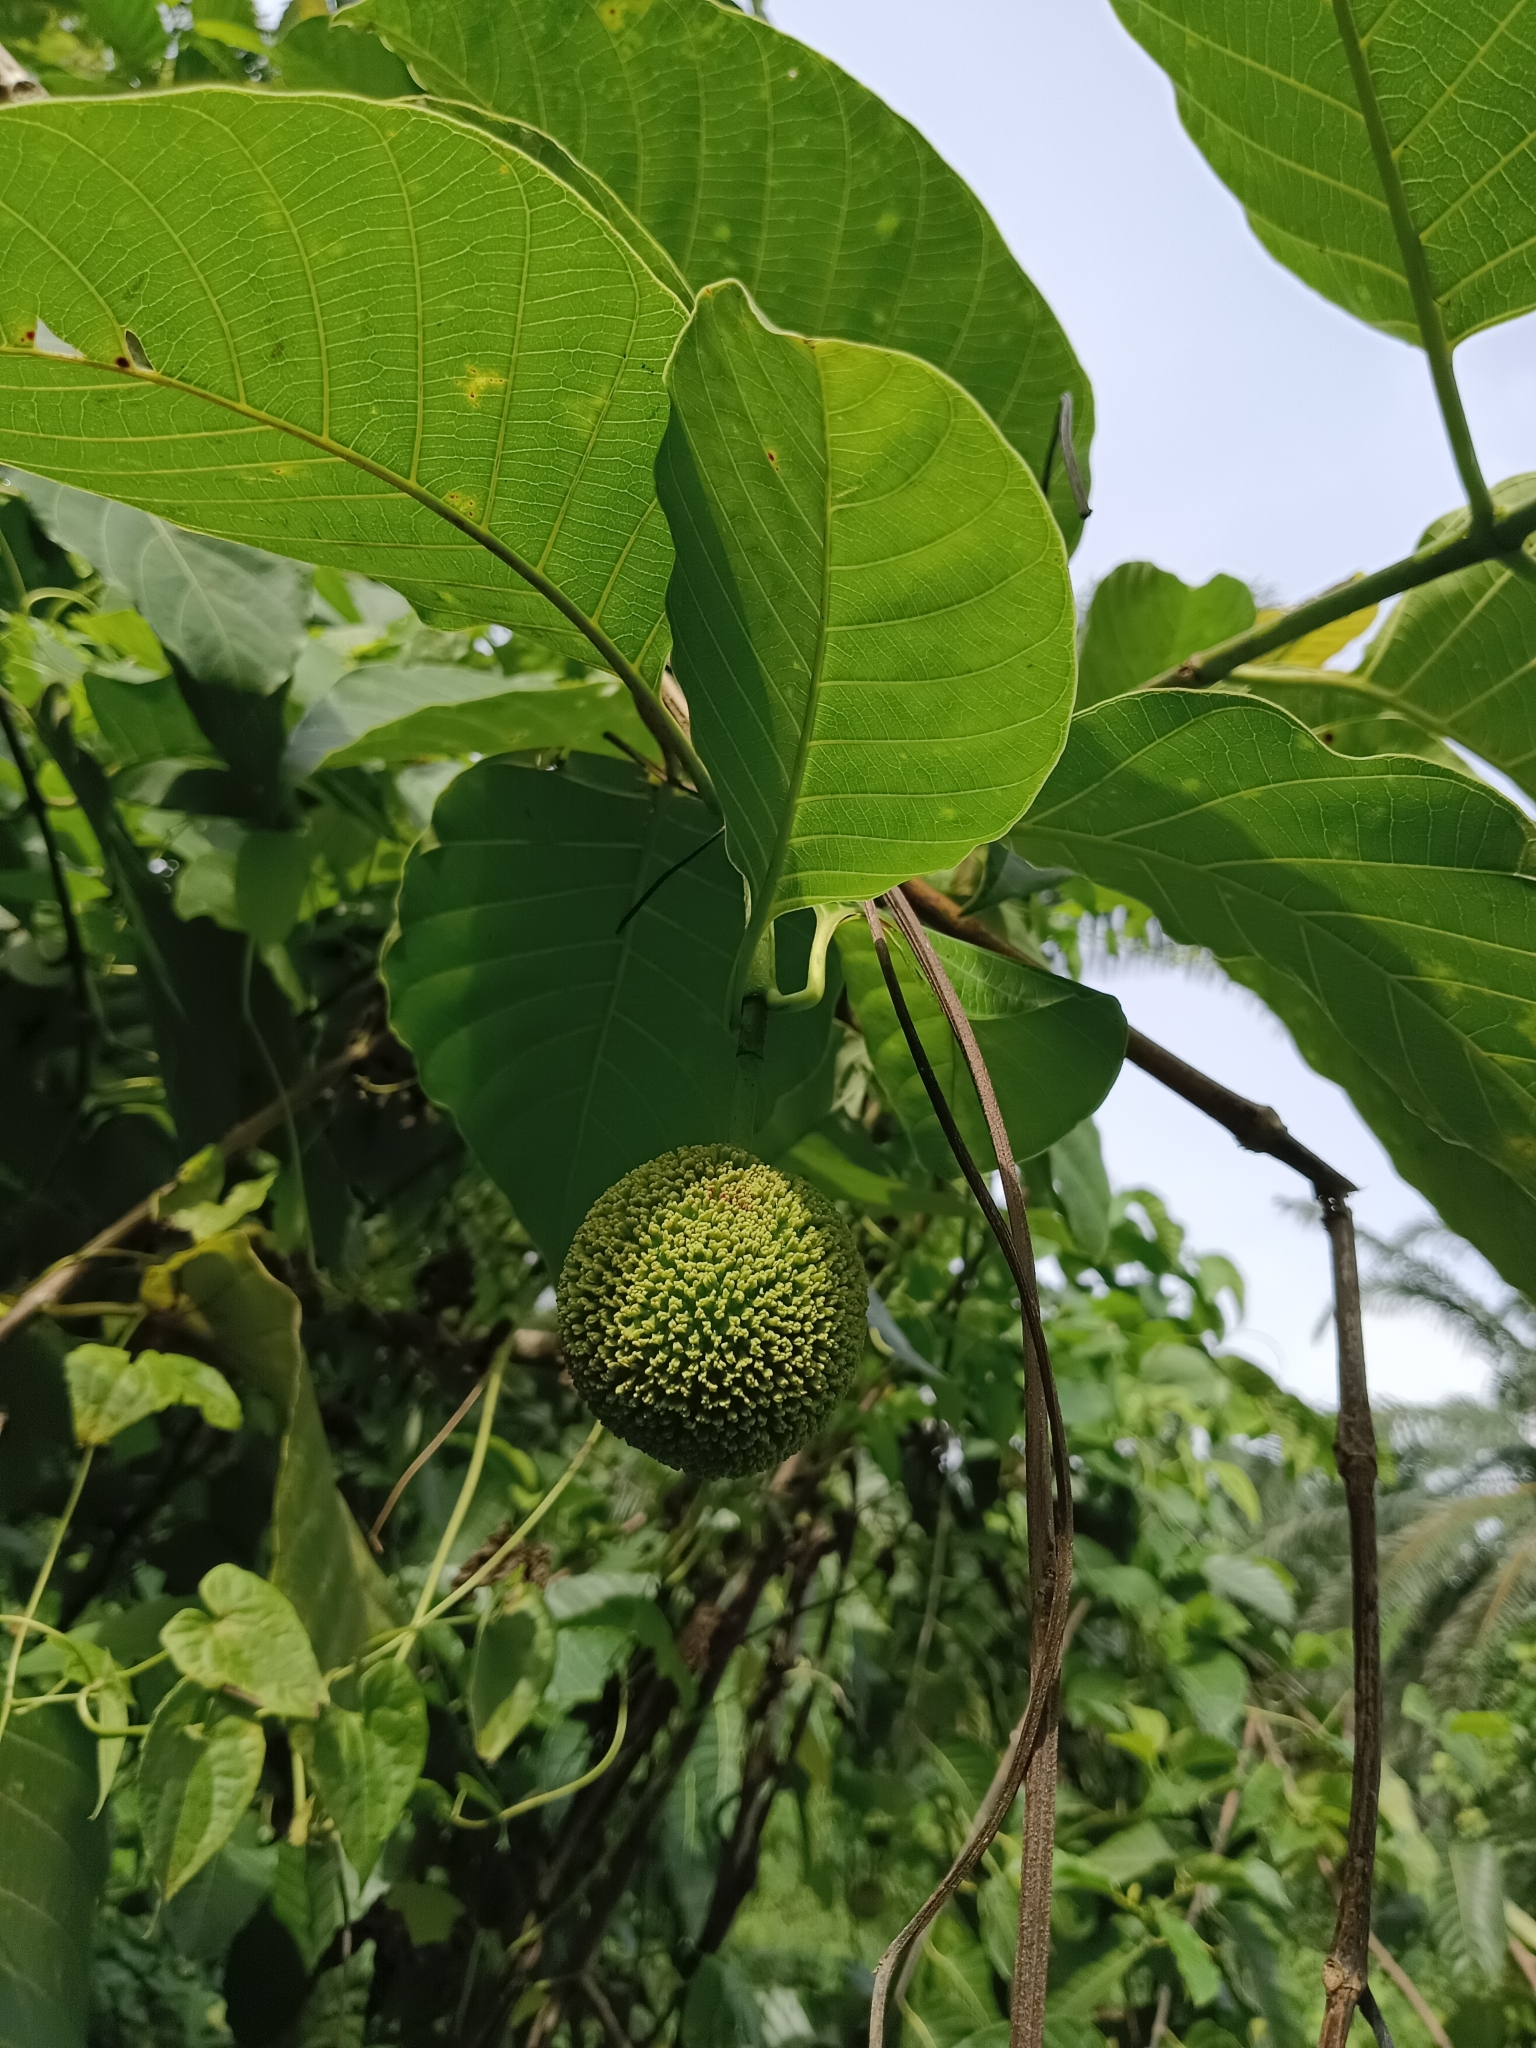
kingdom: Plantae
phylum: Tracheophyta
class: Magnoliopsida
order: Gentianales
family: Rubiaceae
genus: Neolamarckia
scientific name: Neolamarckia cadamba
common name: Leichhardt-pine
